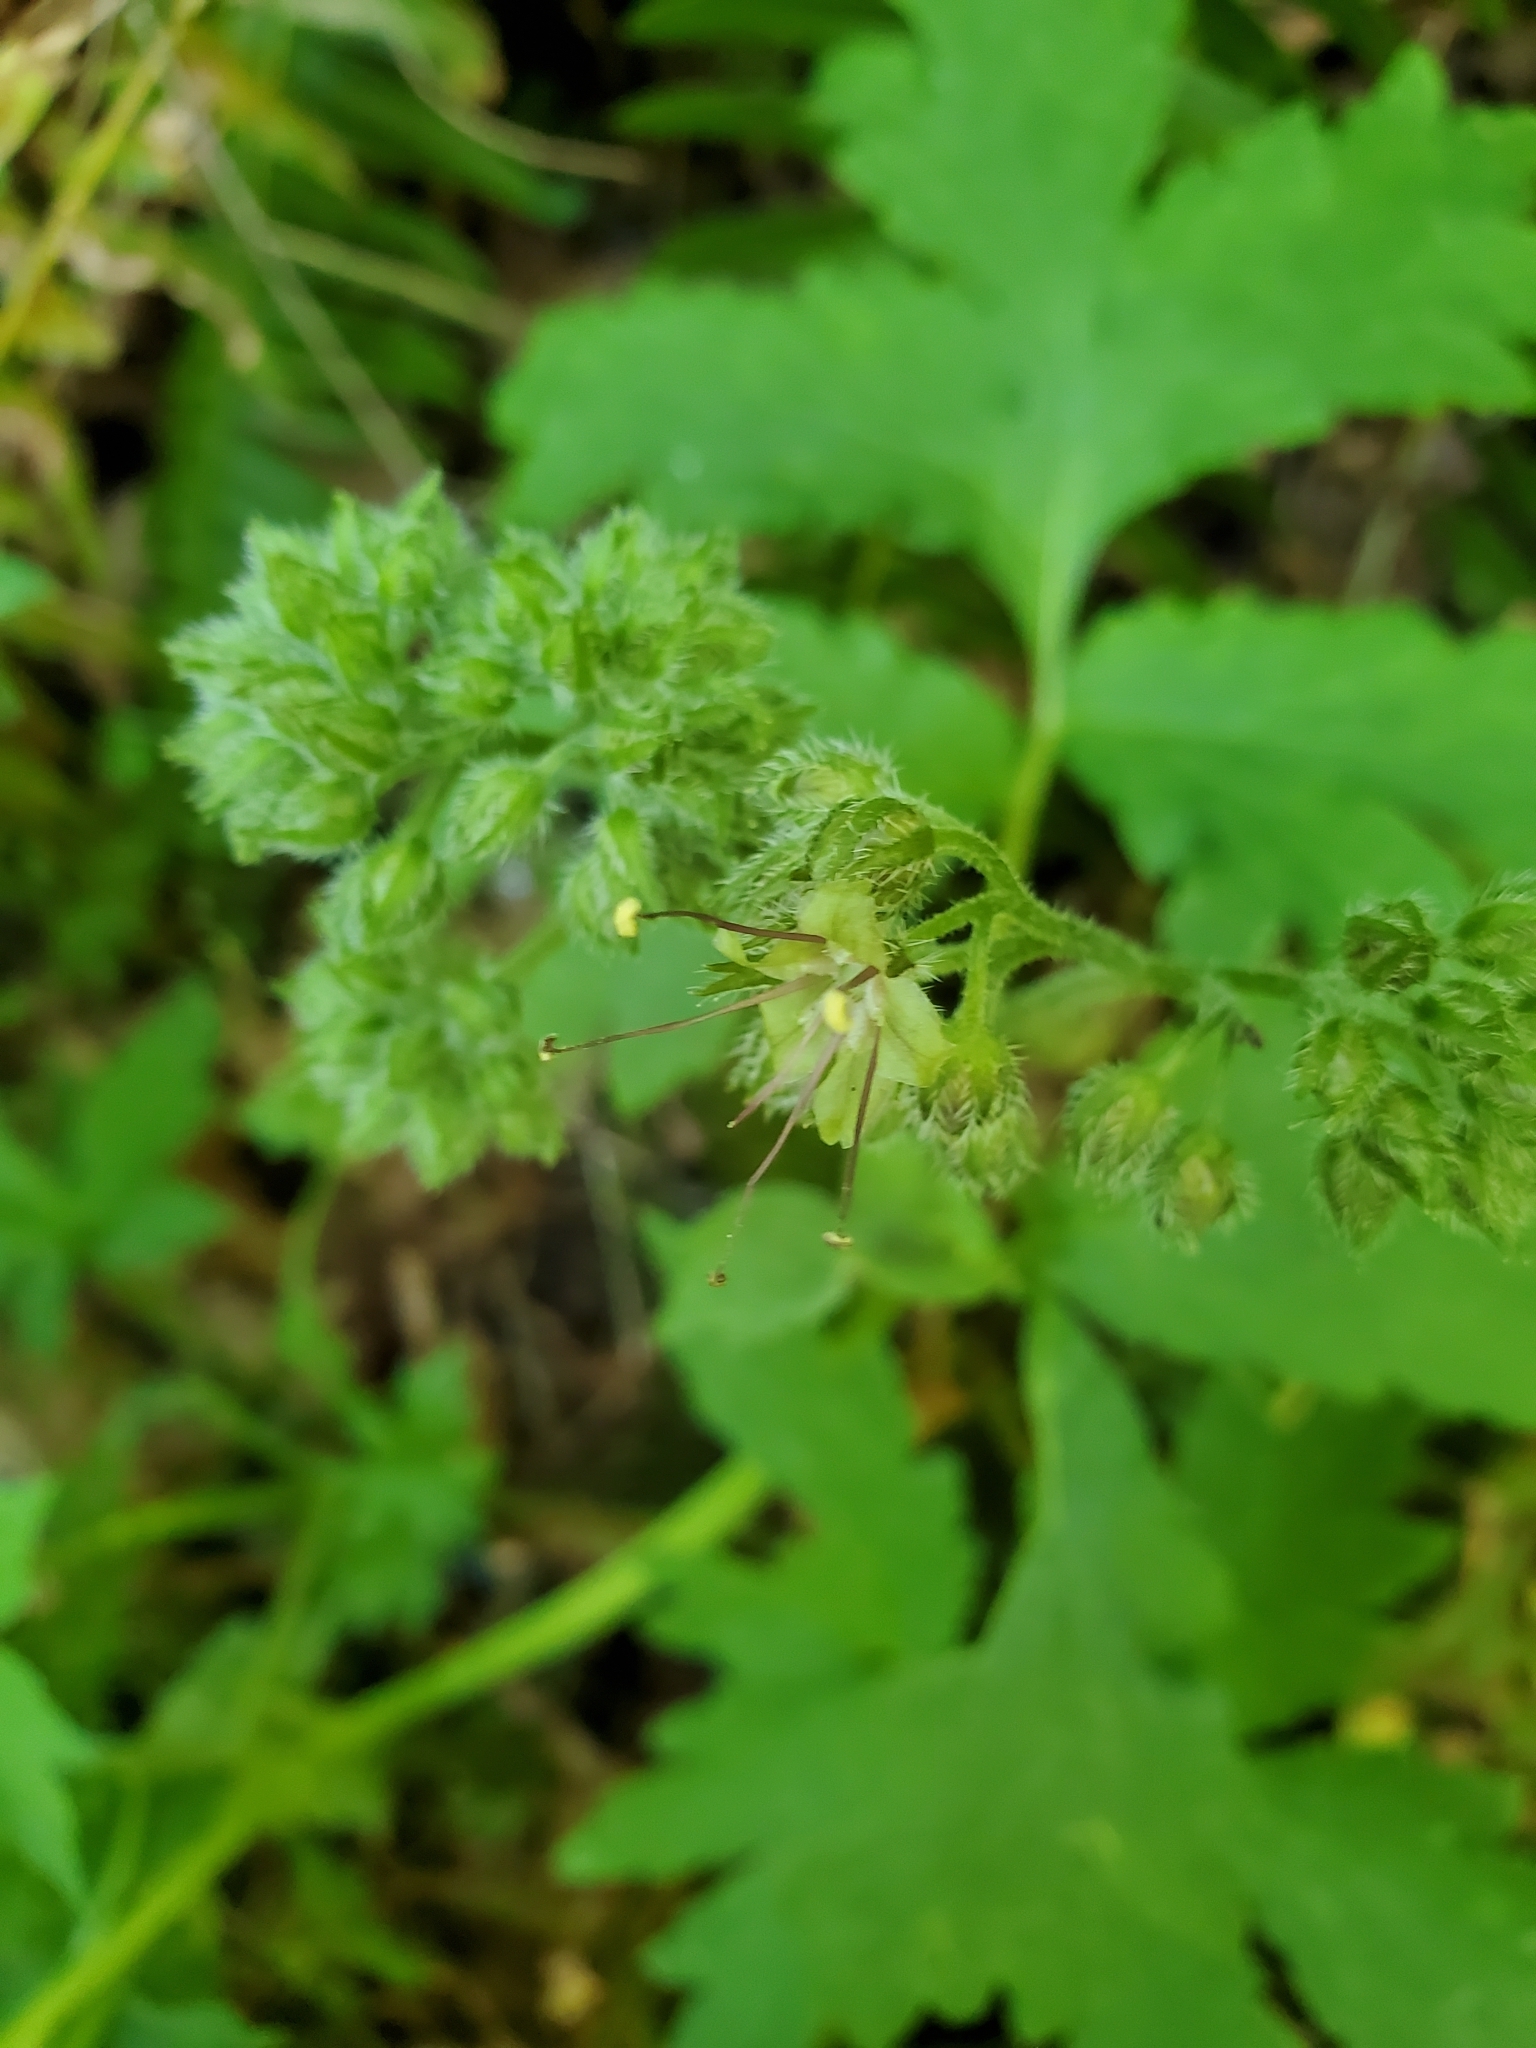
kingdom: Plantae
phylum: Tracheophyta
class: Magnoliopsida
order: Boraginales
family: Hydrophyllaceae
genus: Hydrophyllum
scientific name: Hydrophyllum tenuipes
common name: Pacific waterleaf
